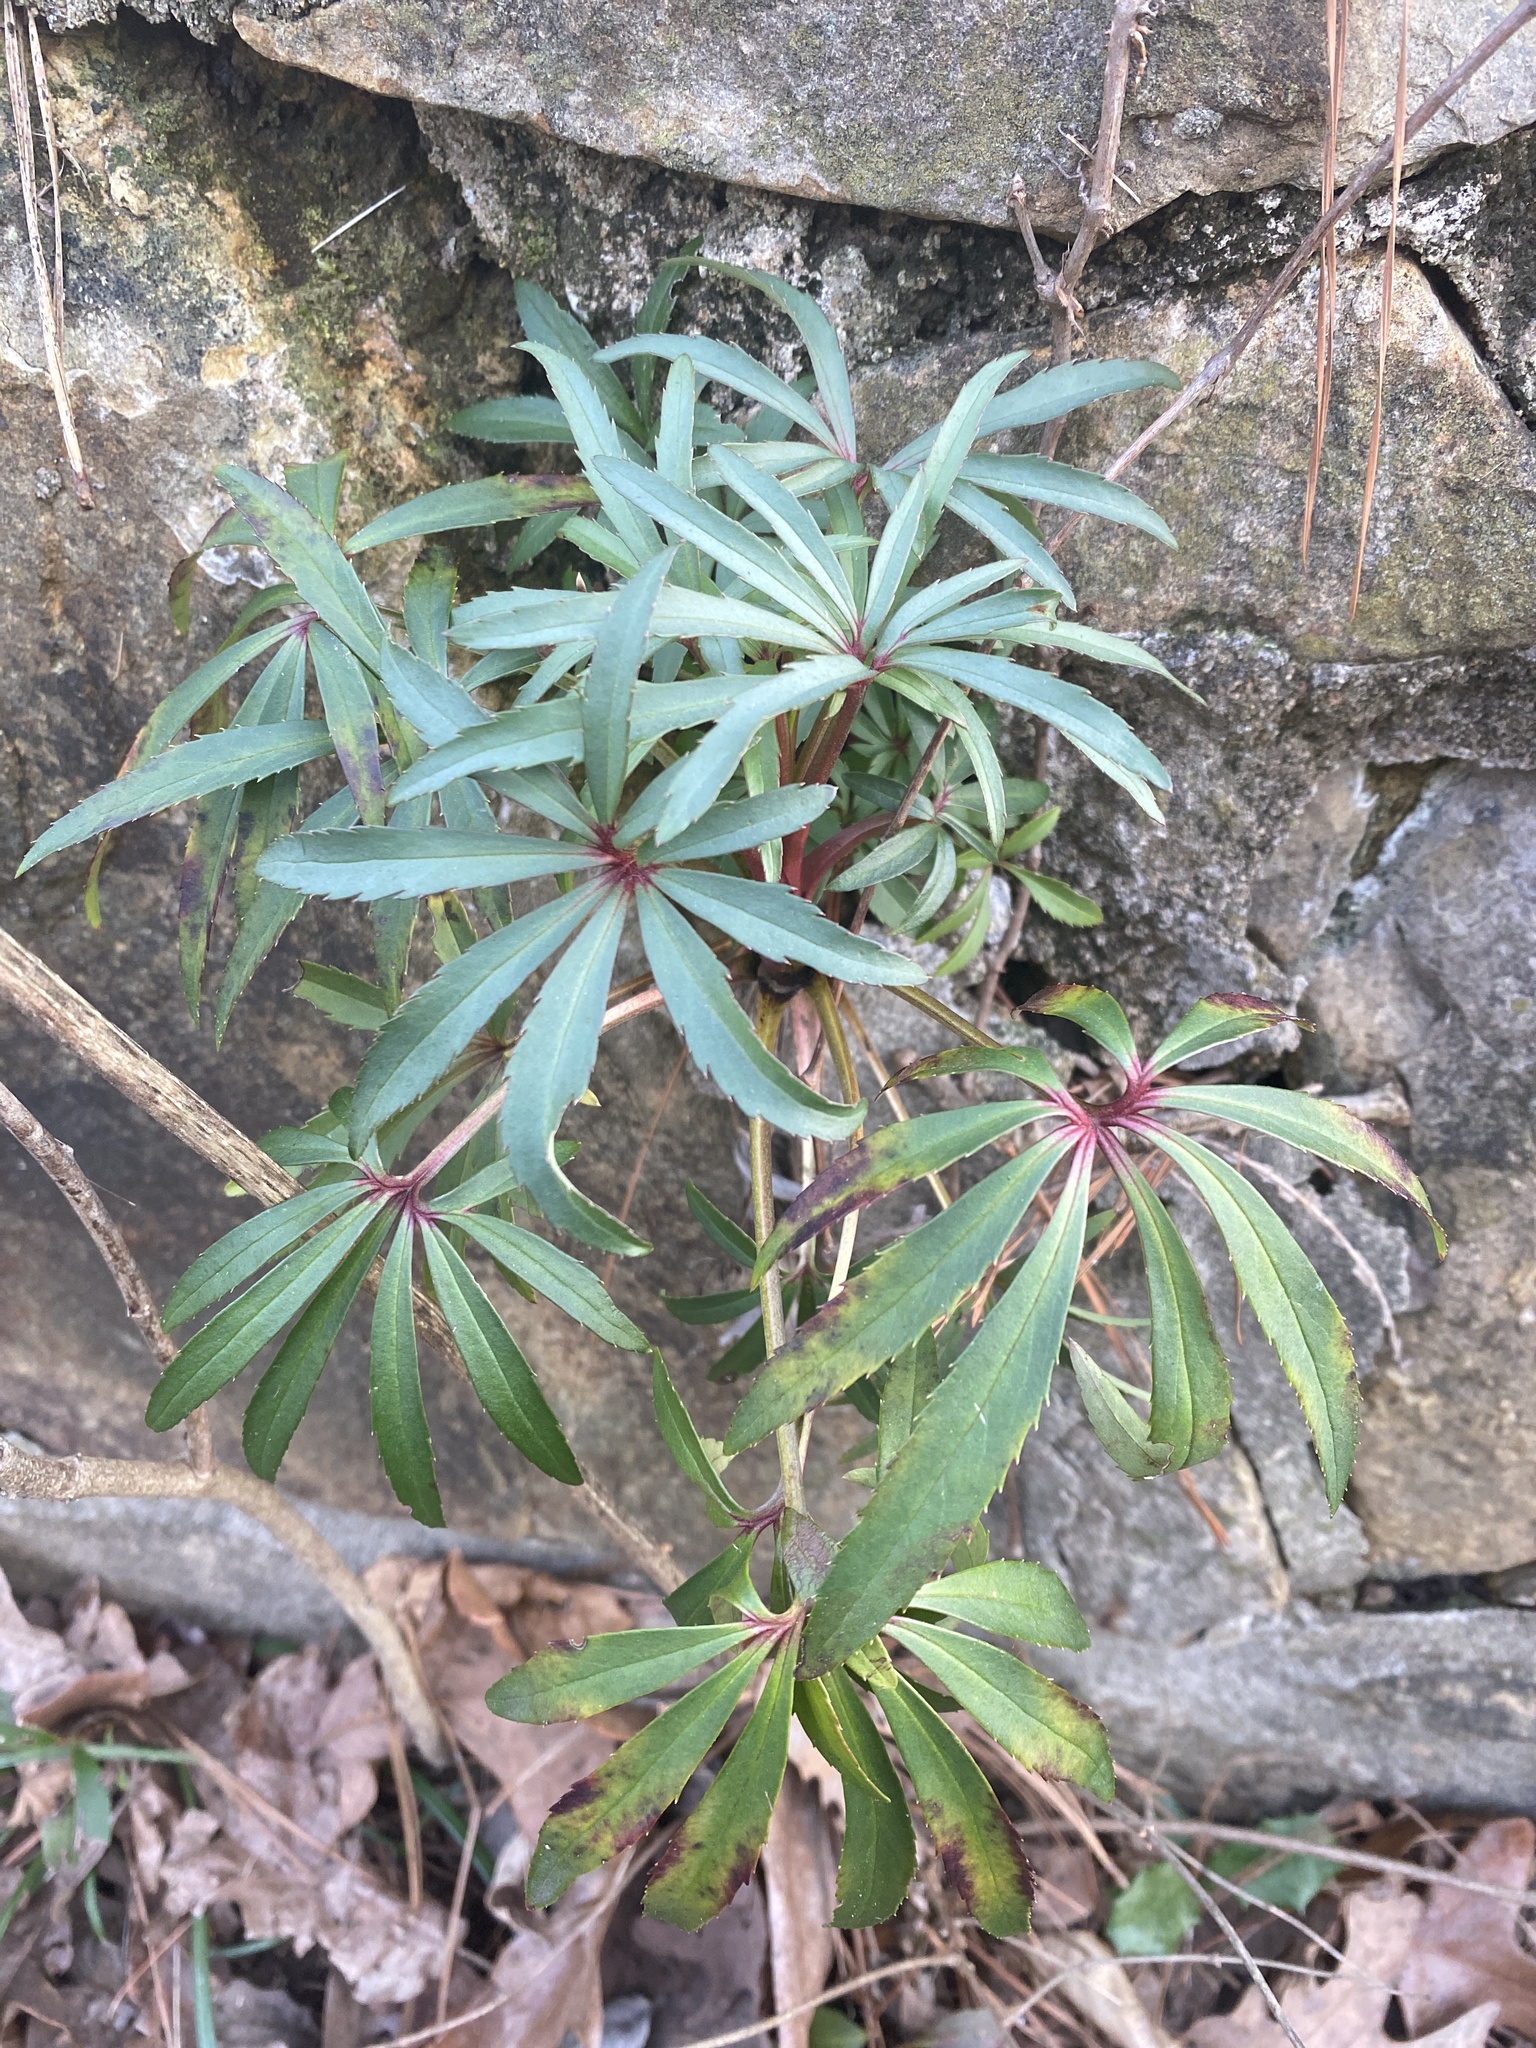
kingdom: Plantae
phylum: Tracheophyta
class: Magnoliopsida
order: Ranunculales
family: Ranunculaceae
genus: Helleborus
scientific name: Helleborus foetidus
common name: Stinking hellebore
